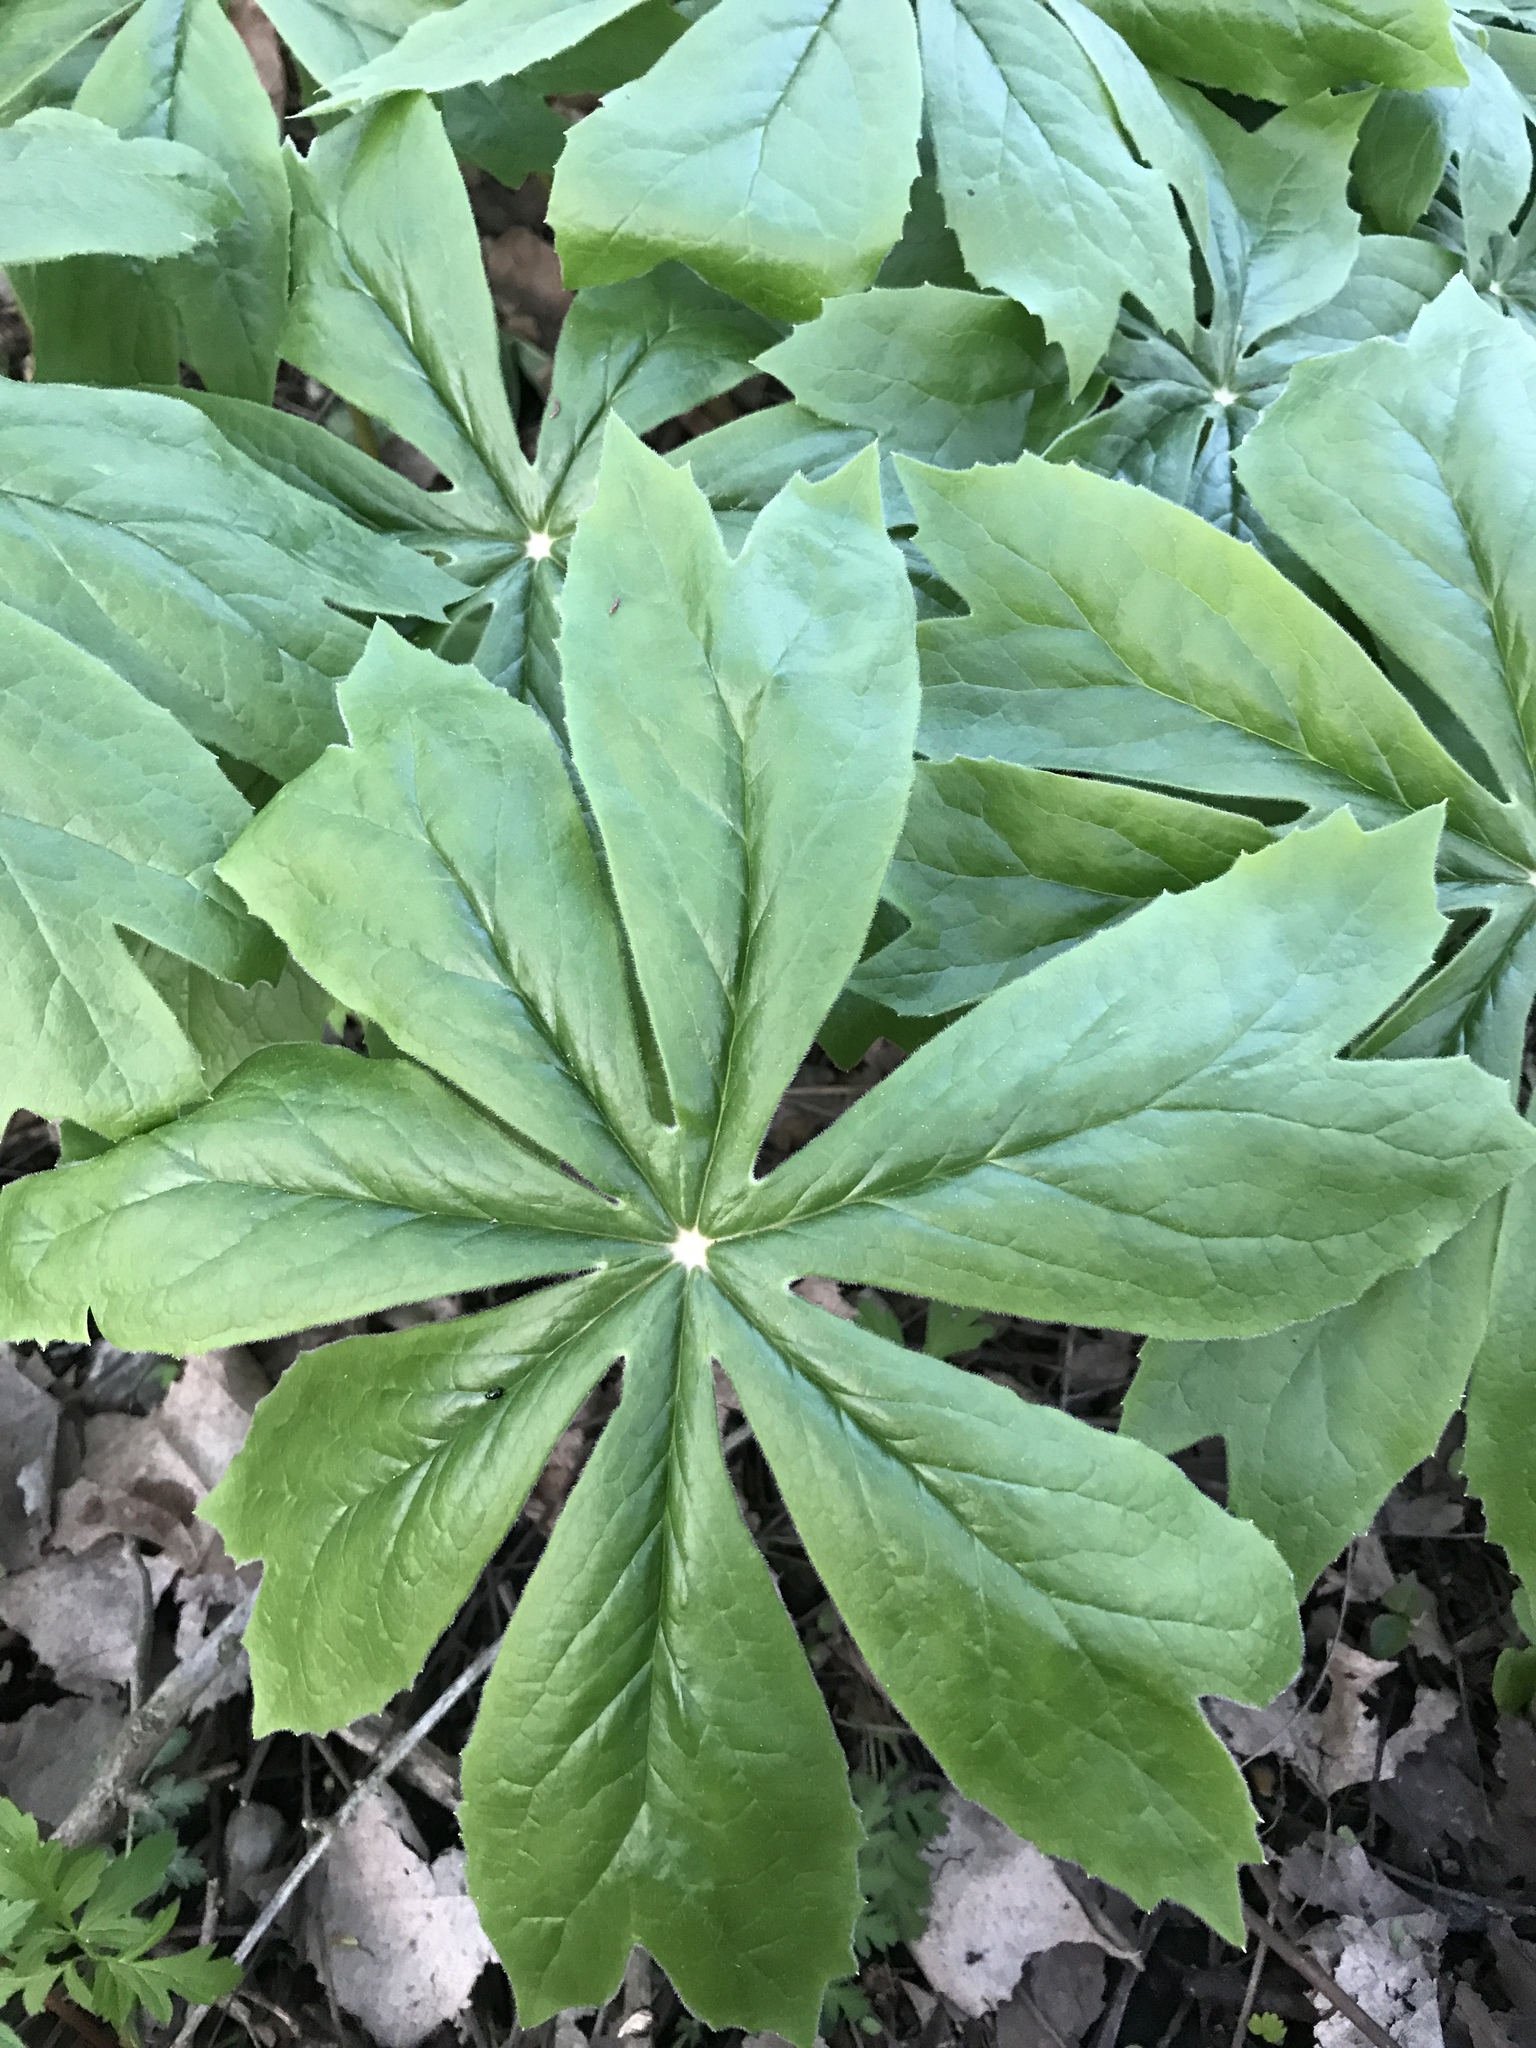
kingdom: Plantae
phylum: Tracheophyta
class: Magnoliopsida
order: Ranunculales
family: Berberidaceae
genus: Podophyllum
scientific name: Podophyllum peltatum
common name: Wild mandrake
